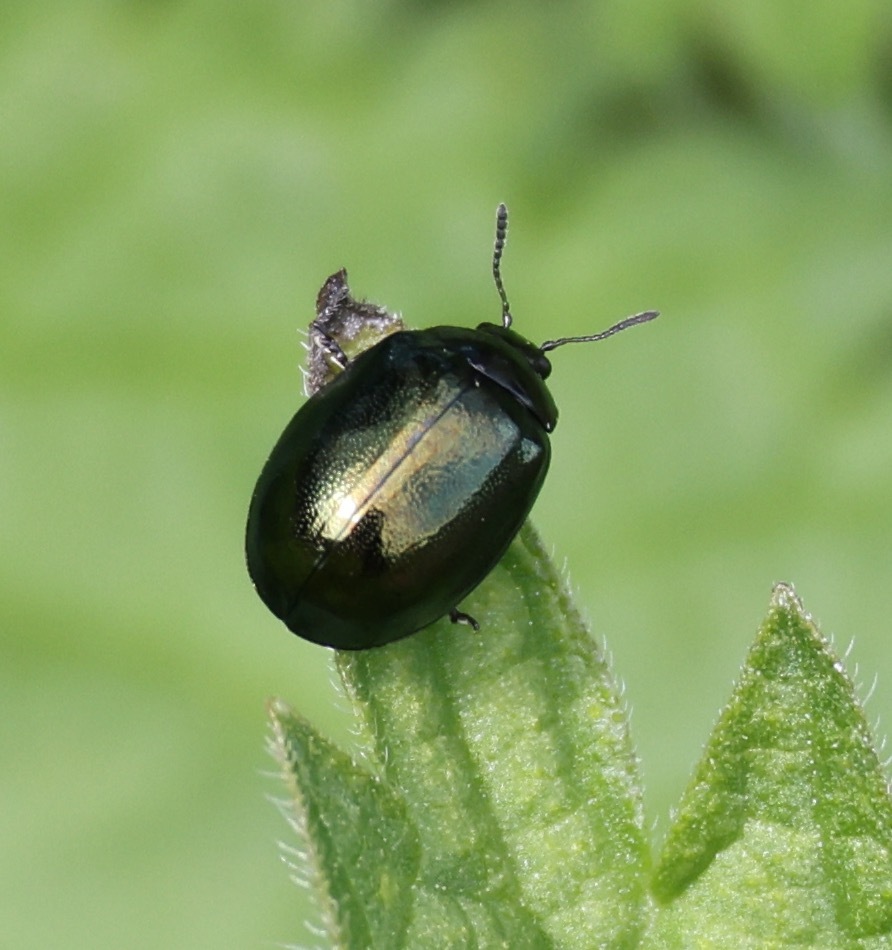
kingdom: Animalia
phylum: Arthropoda
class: Insecta
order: Coleoptera
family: Chrysomelidae
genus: Plagiodera
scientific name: Plagiodera versicolora
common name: Imported willow leaf beetle
